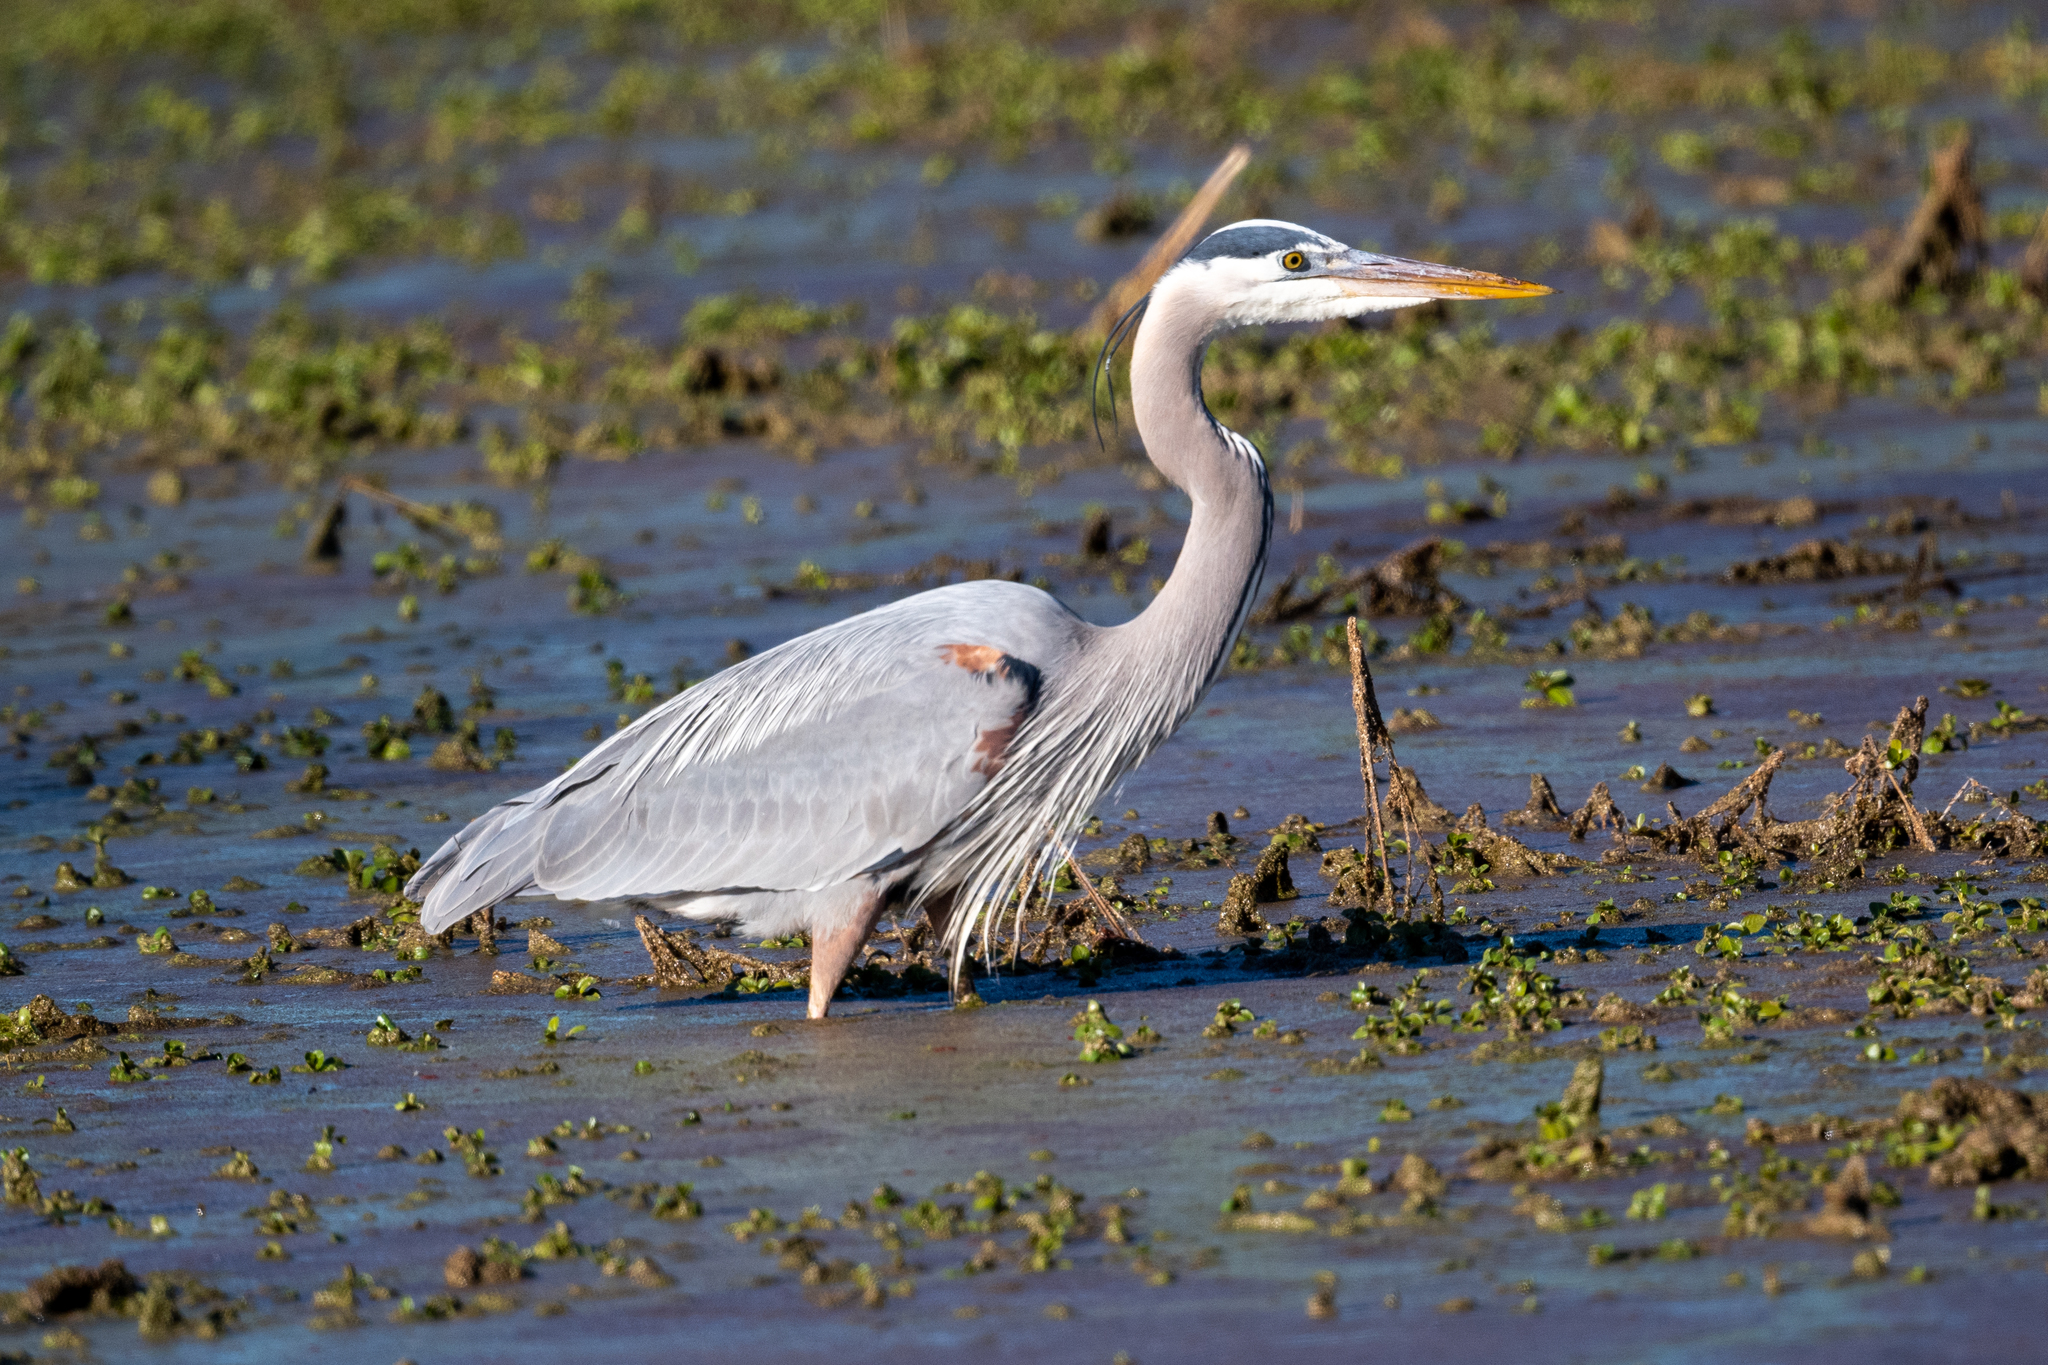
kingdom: Animalia
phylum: Chordata
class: Aves
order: Pelecaniformes
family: Ardeidae
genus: Ardea
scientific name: Ardea herodias
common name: Great blue heron
